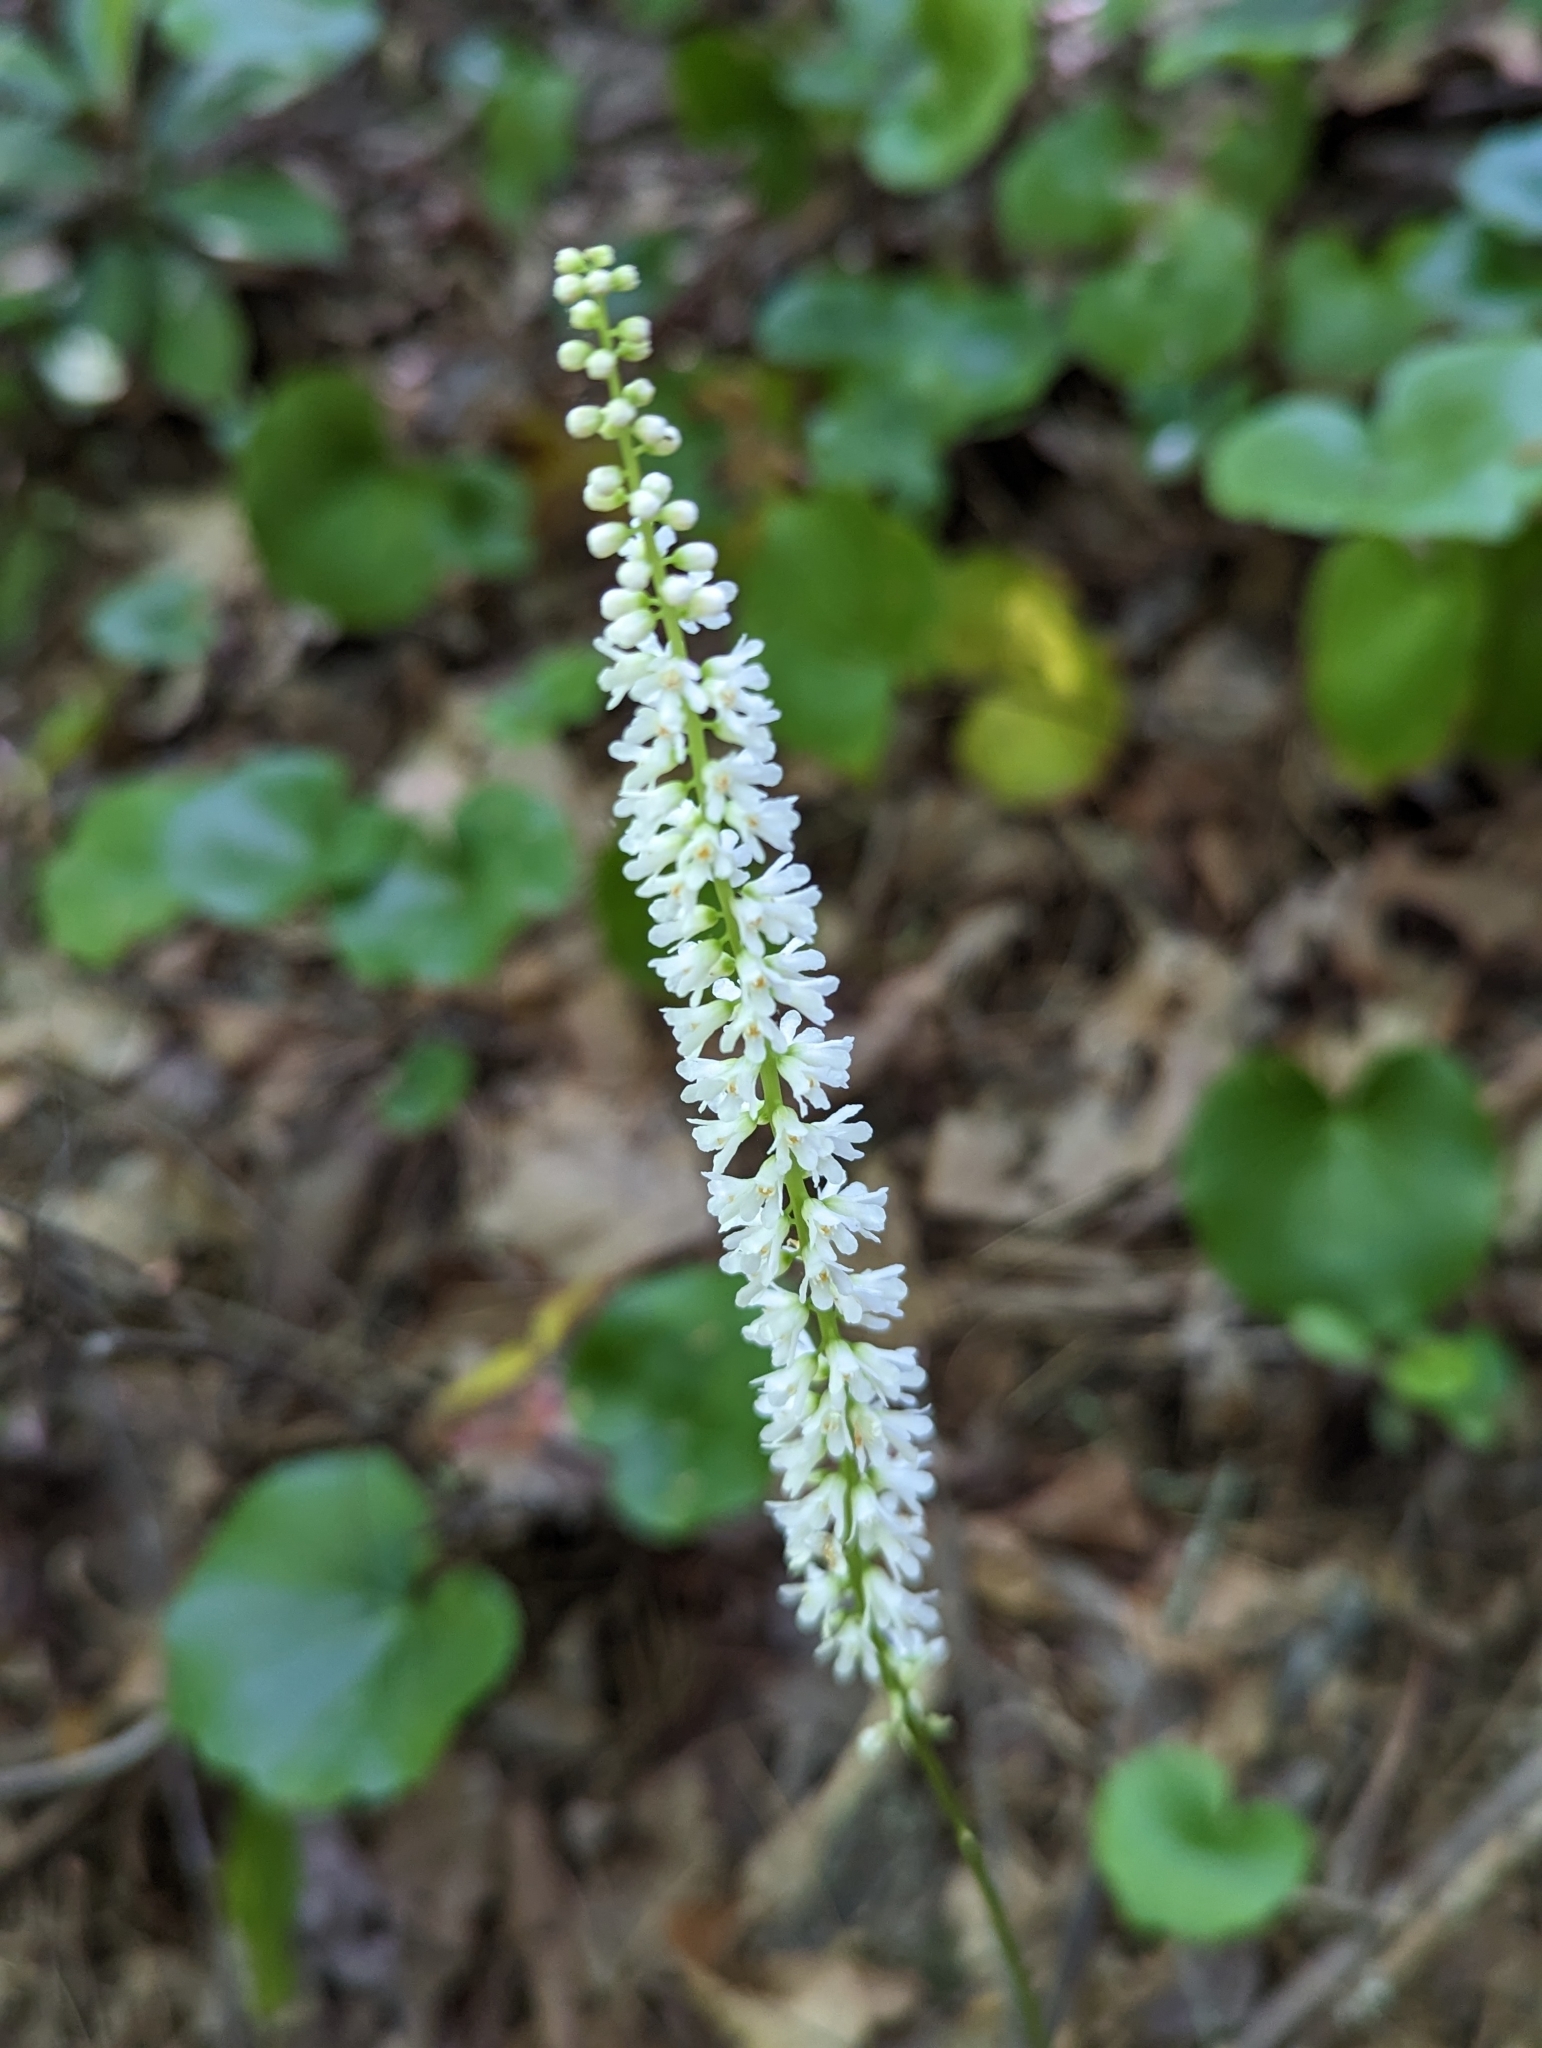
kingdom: Plantae
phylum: Tracheophyta
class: Magnoliopsida
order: Ericales
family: Diapensiaceae
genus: Galax
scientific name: Galax urceolata
